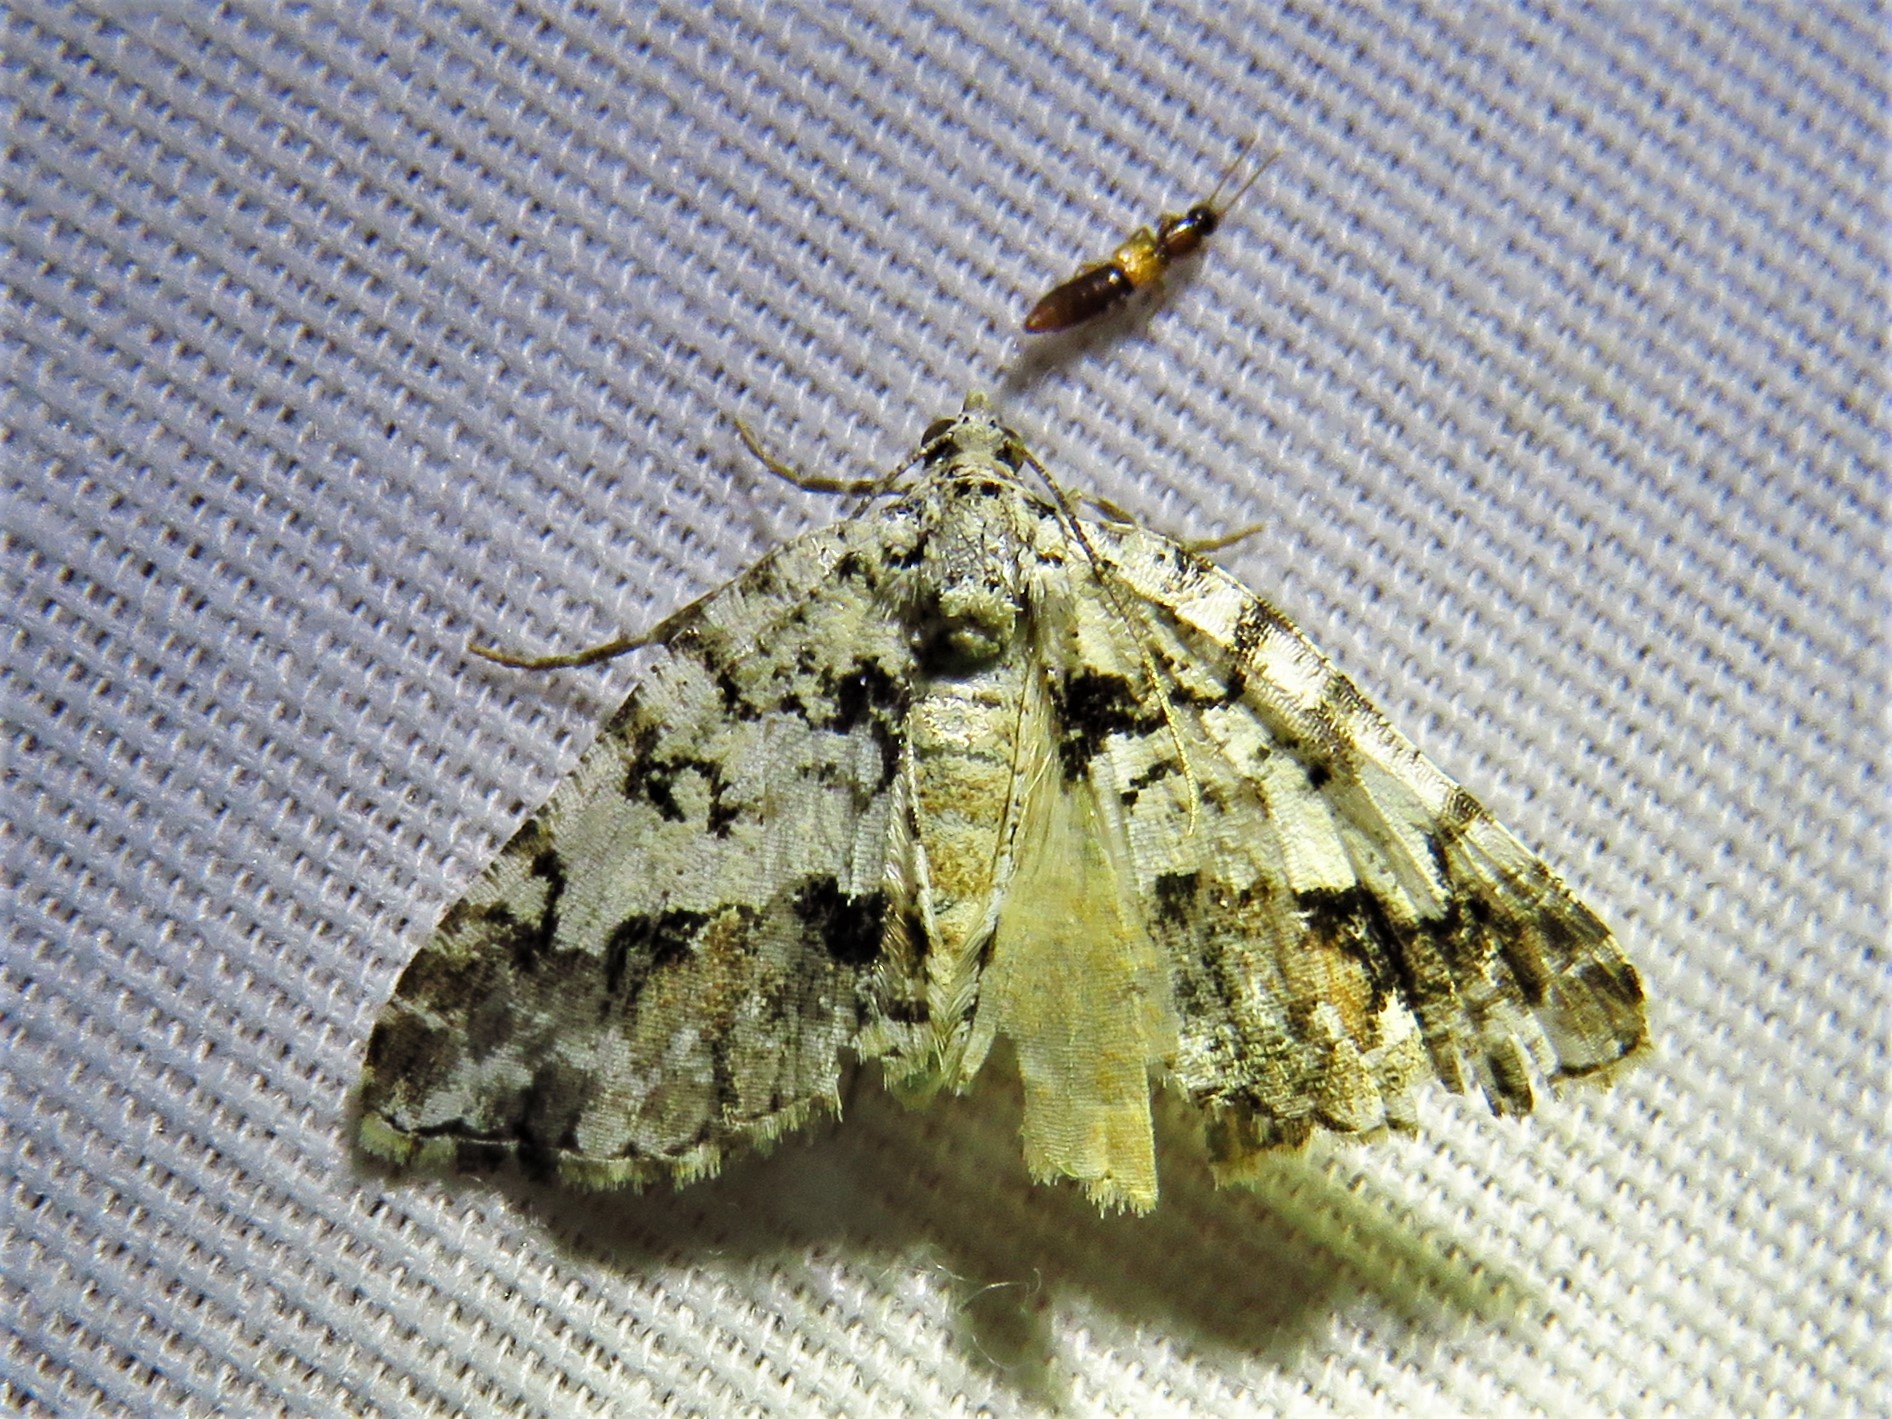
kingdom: Animalia
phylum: Arthropoda
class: Insecta
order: Lepidoptera
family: Geometridae
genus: Macaria
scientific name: Macaria graphidaria
